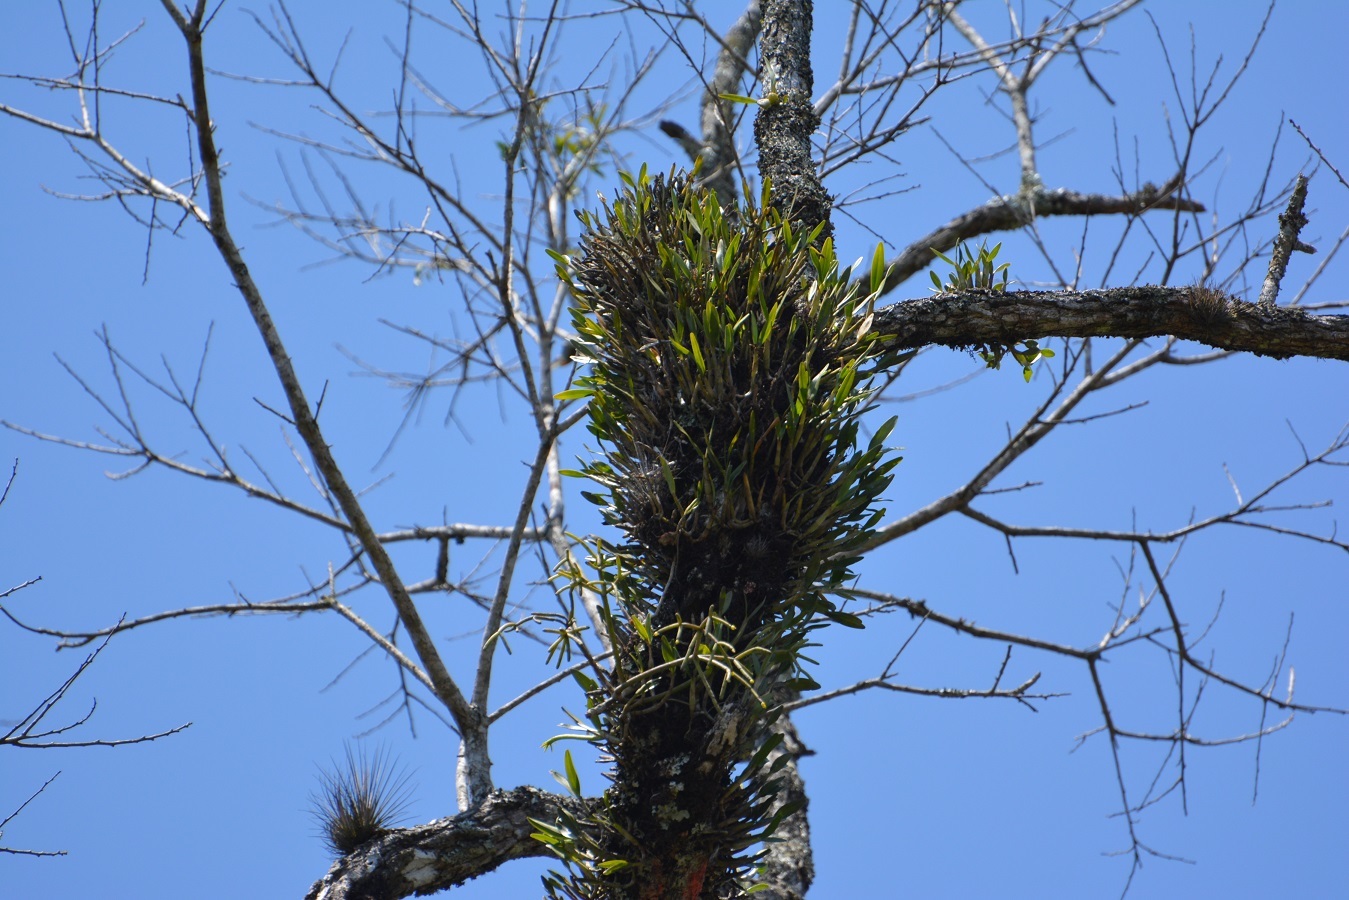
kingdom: Plantae
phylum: Tracheophyta
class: Liliopsida
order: Asparagales
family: Orchidaceae
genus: Guarianthe
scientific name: Guarianthe skinneri
